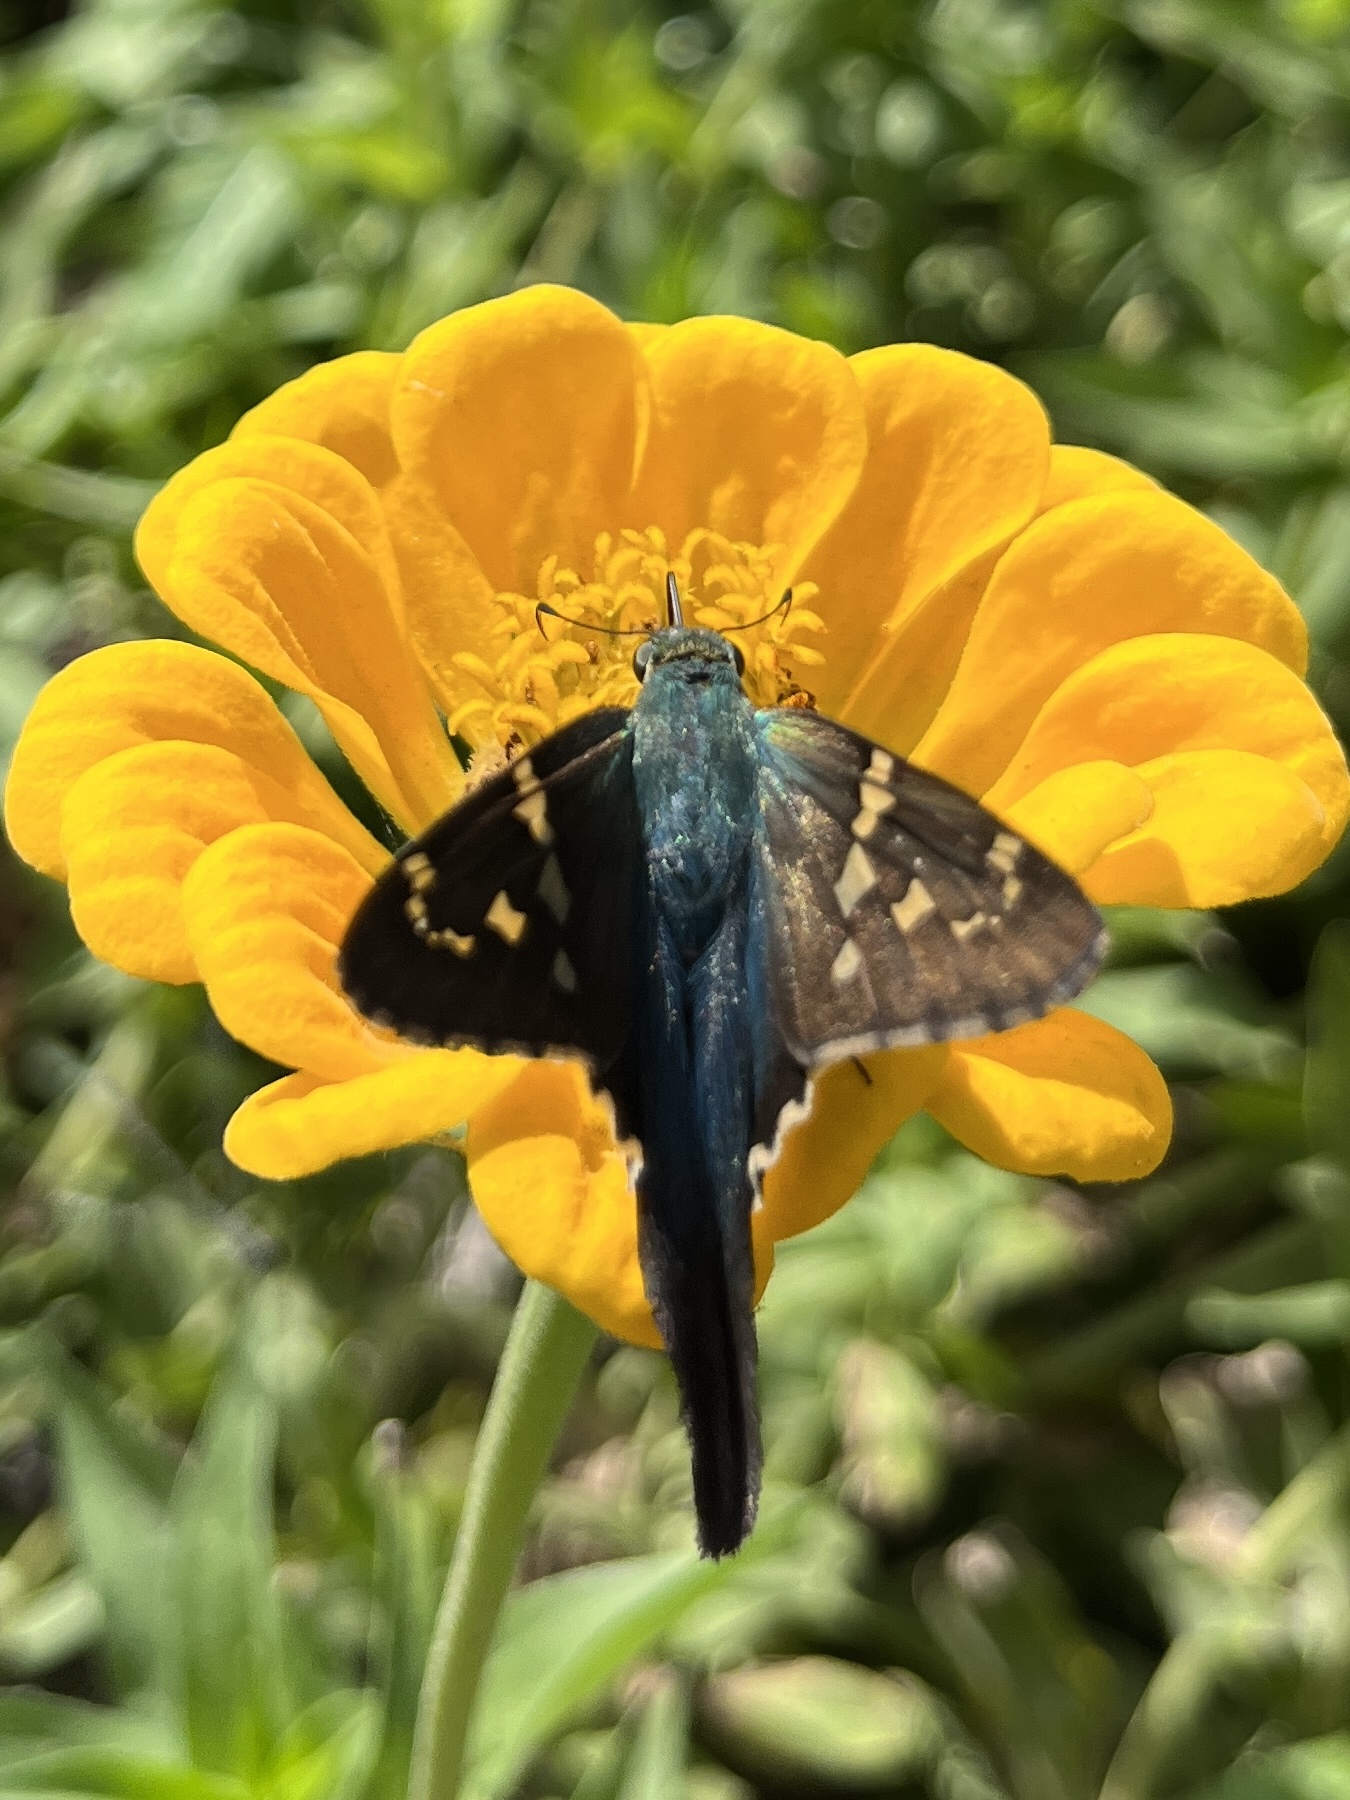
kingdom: Animalia
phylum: Arthropoda
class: Insecta
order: Lepidoptera
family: Hesperiidae
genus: Urbanus
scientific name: Urbanus proteus
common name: Long-tailed skipper
